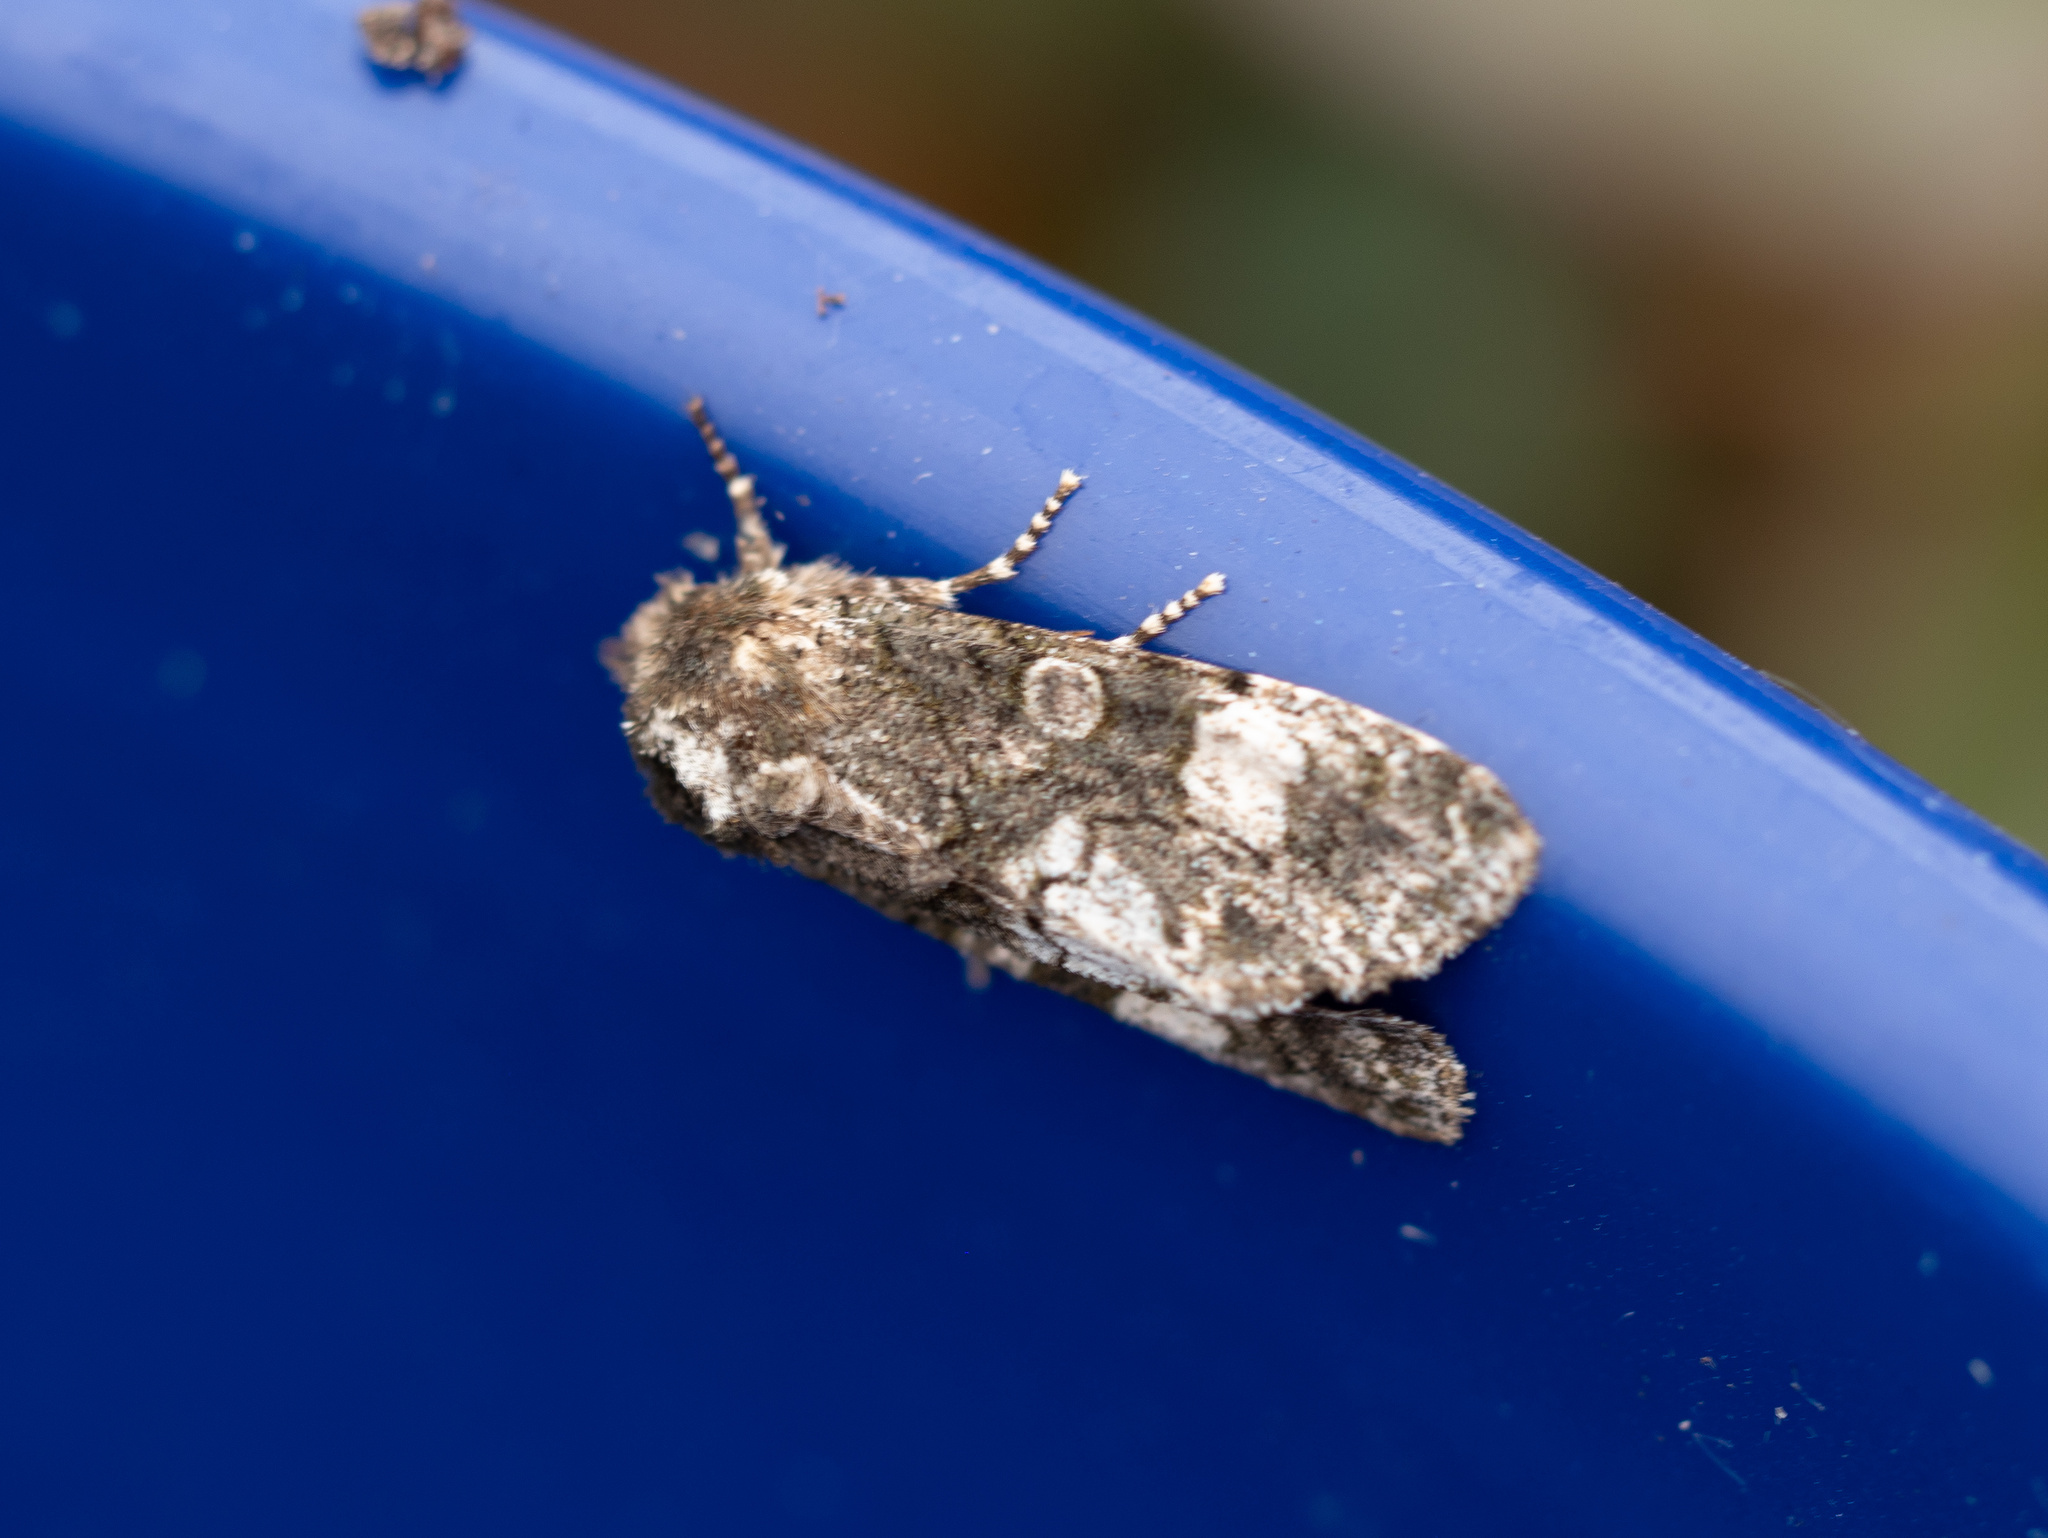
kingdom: Animalia
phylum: Arthropoda
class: Insecta
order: Lepidoptera
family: Noctuidae
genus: Psaphida
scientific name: Psaphida grotei
